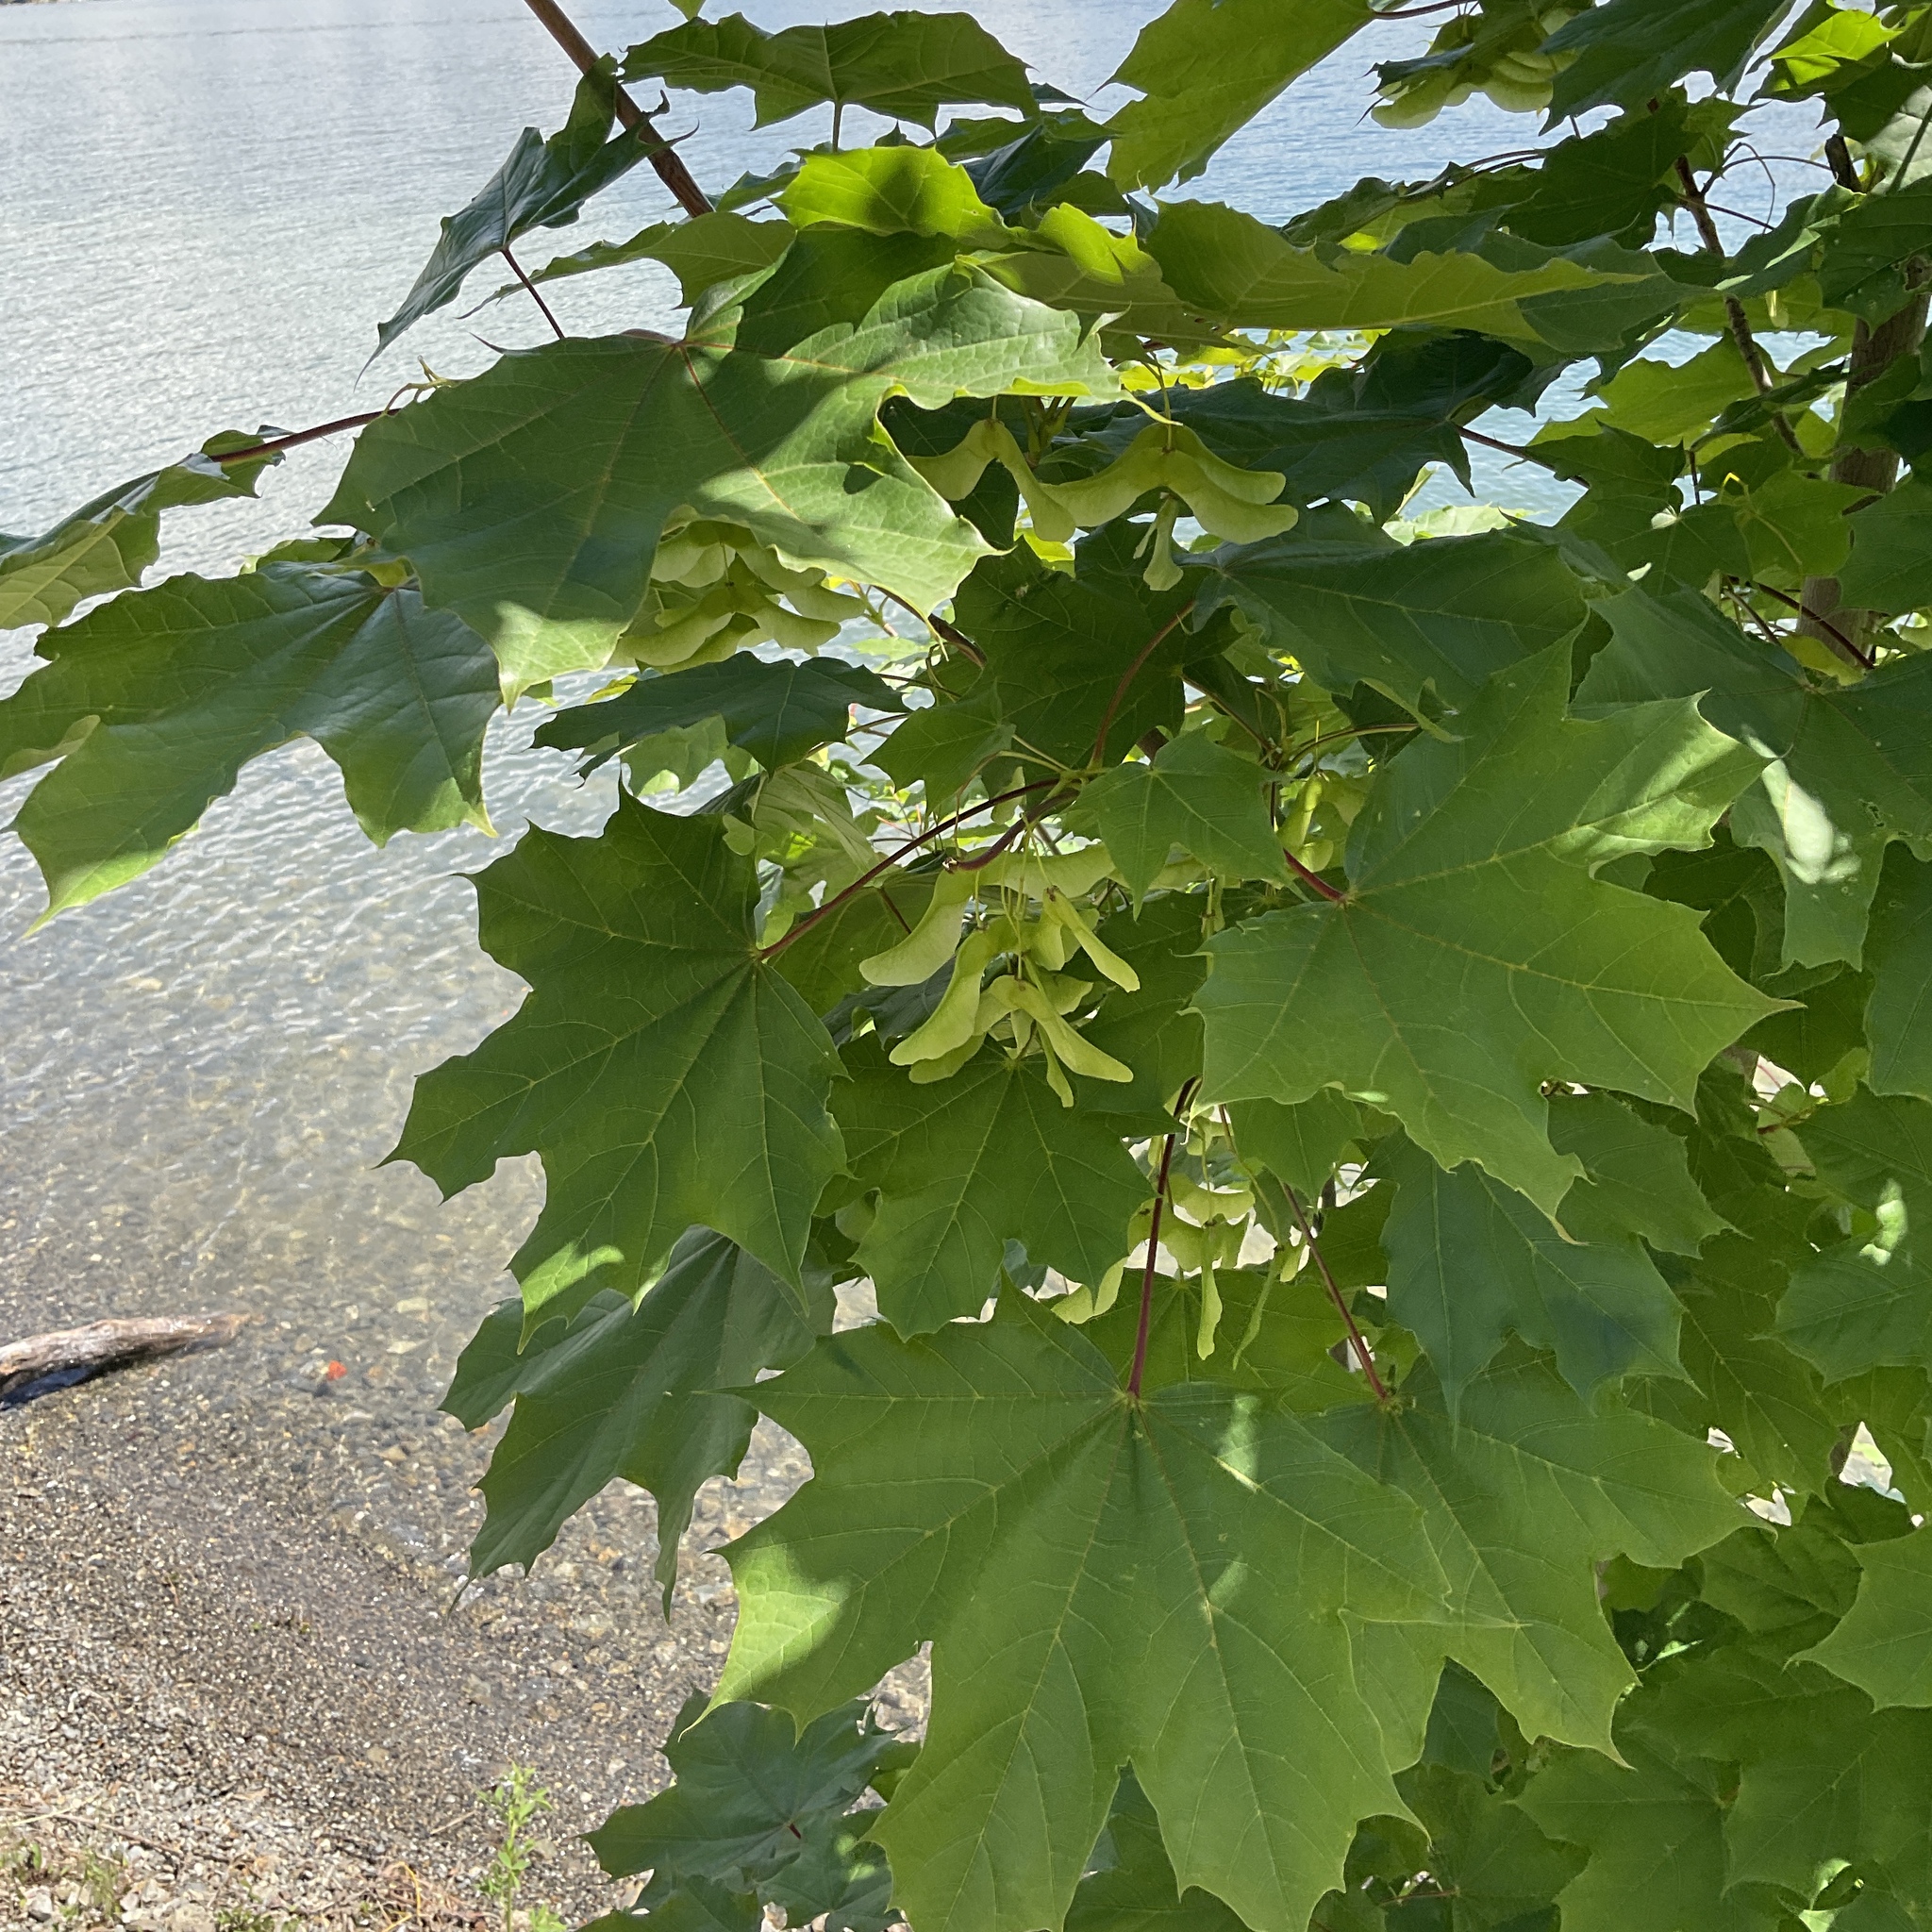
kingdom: Plantae
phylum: Tracheophyta
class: Magnoliopsida
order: Sapindales
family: Sapindaceae
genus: Acer
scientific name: Acer platanoides
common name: Norway maple
